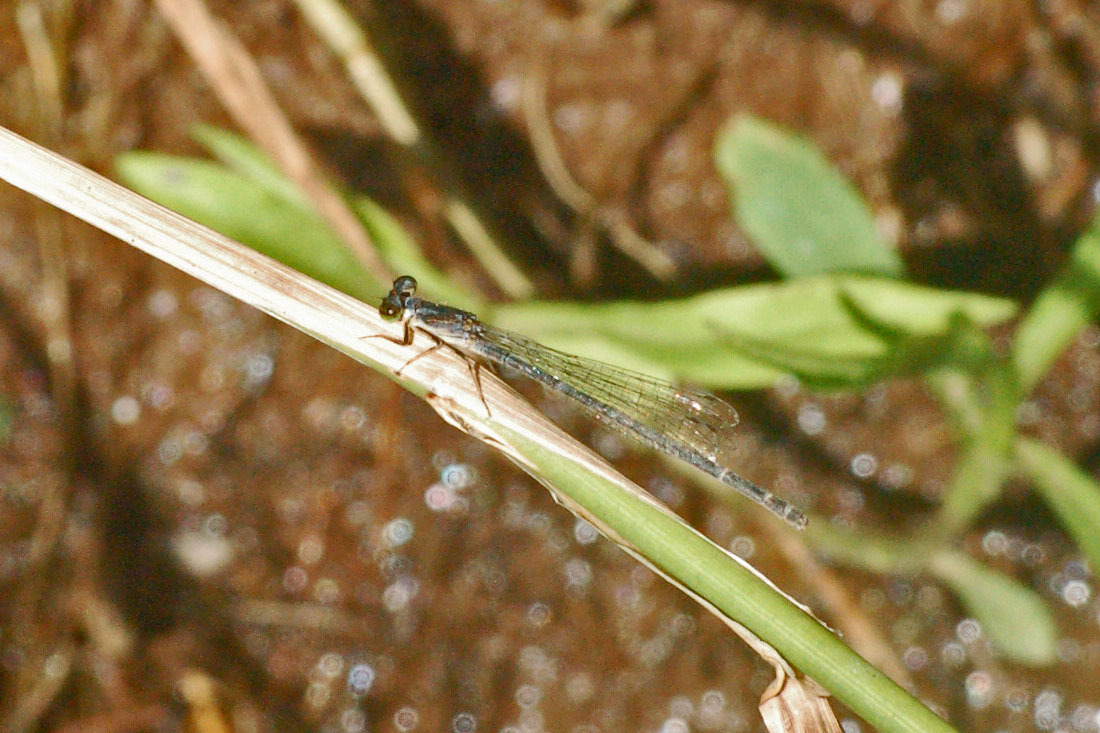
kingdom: Animalia
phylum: Arthropoda
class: Insecta
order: Odonata
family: Coenagrionidae
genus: Ischnura
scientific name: Ischnura posita
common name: Fragile forktail
